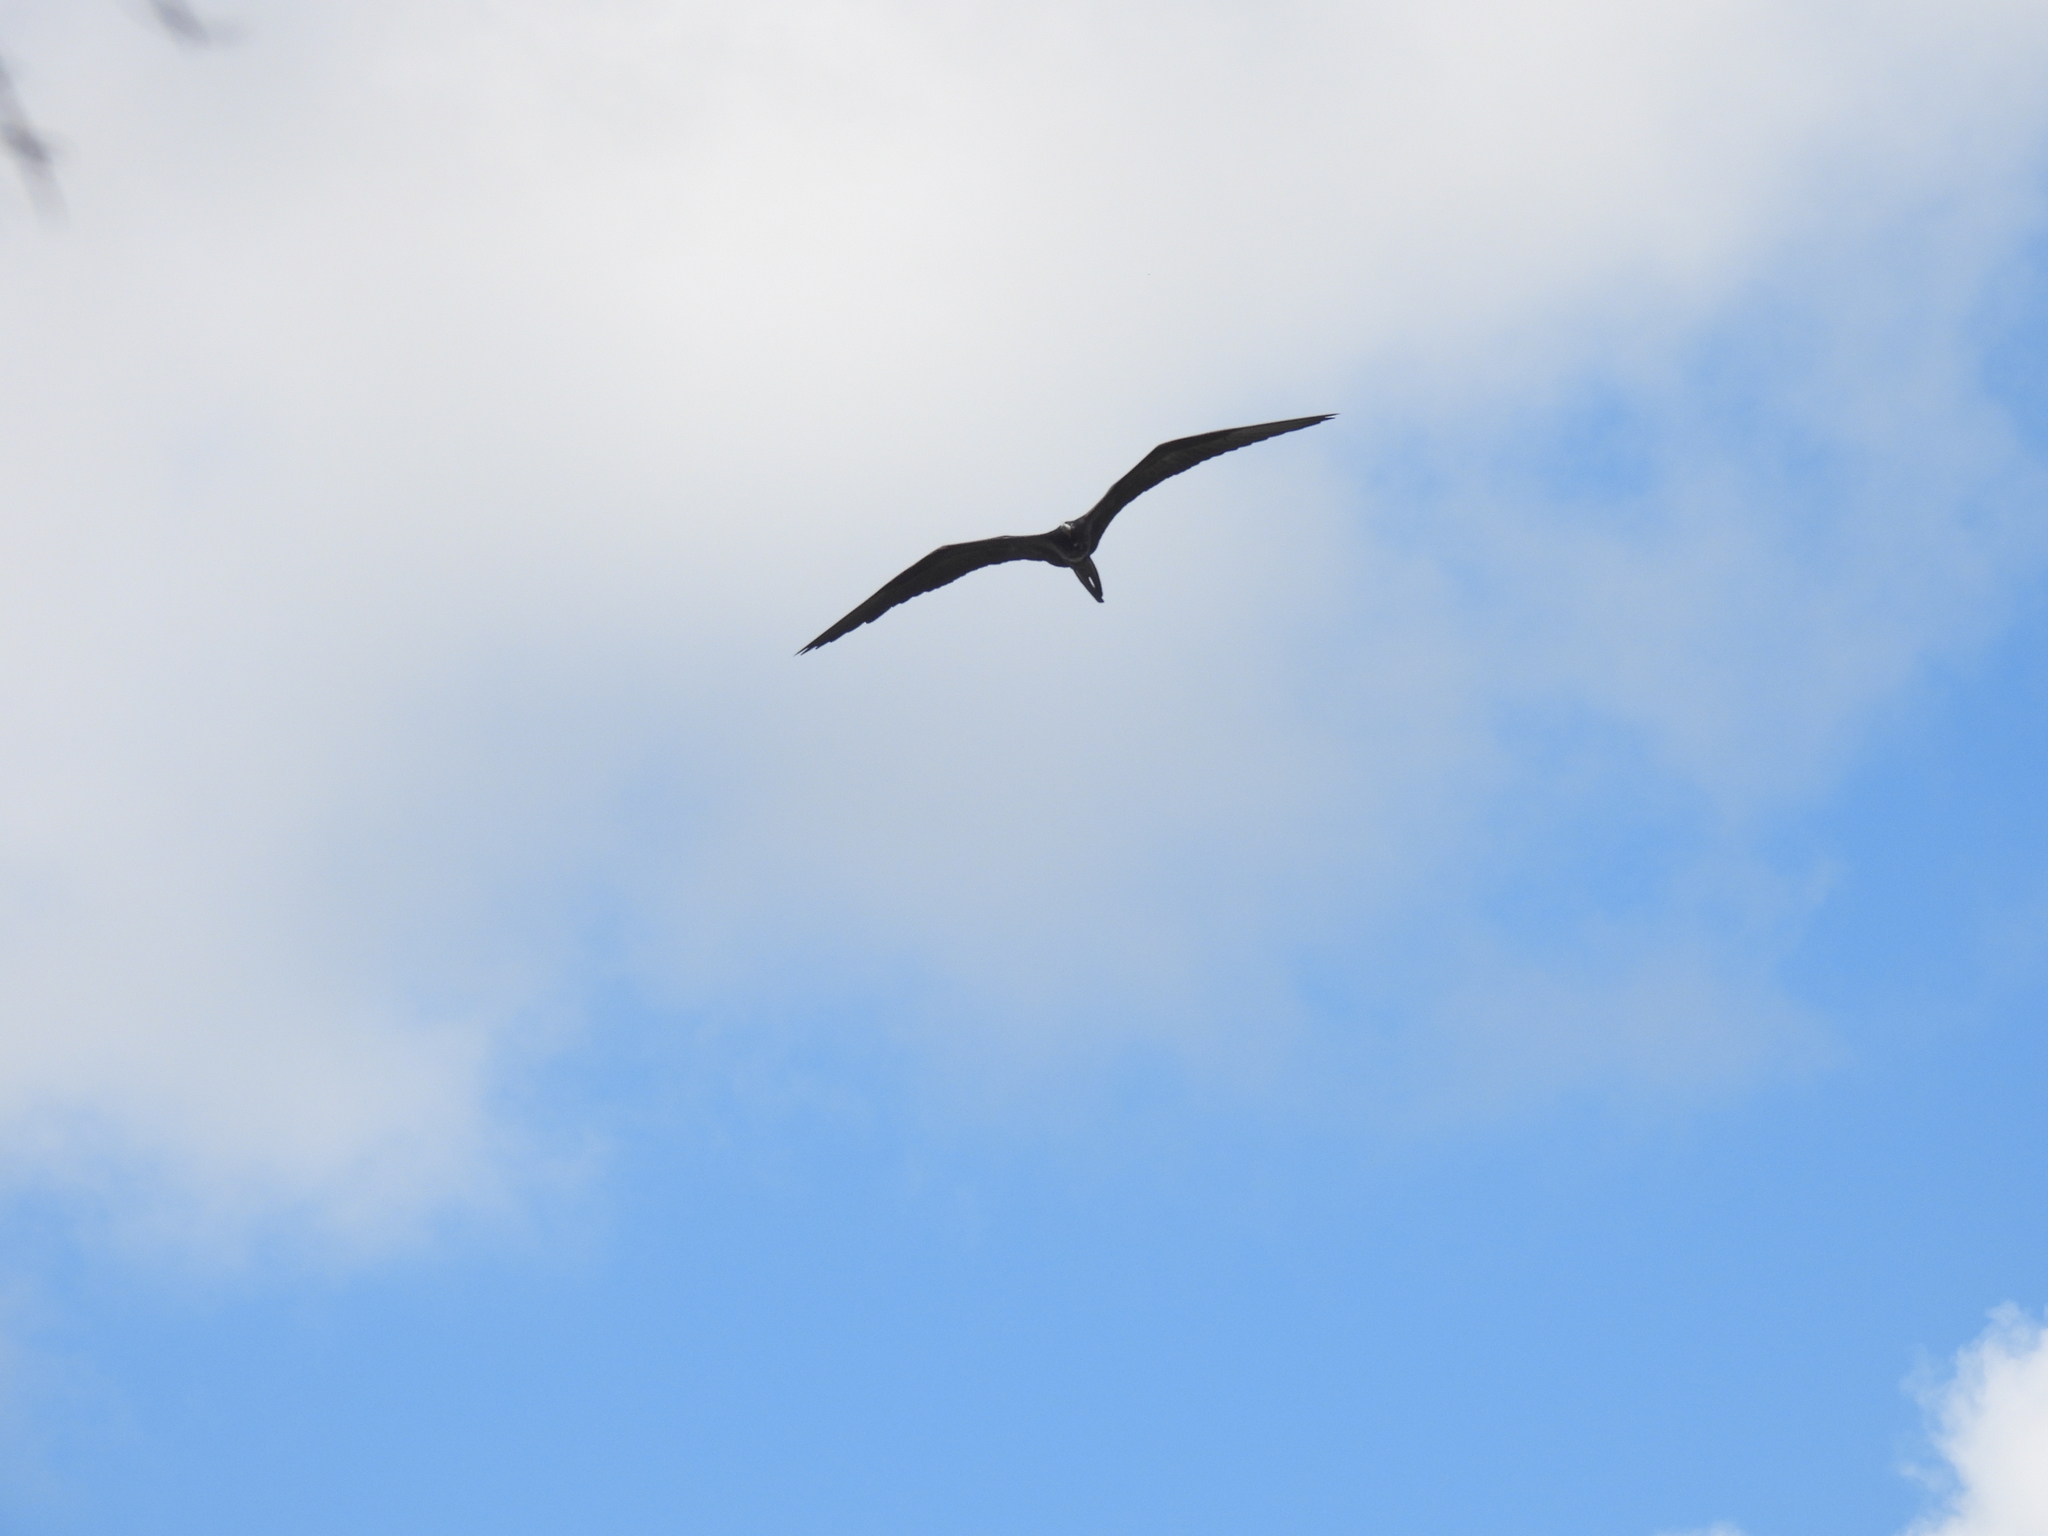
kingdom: Animalia
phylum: Chordata
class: Aves
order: Suliformes
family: Fregatidae
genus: Fregata
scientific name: Fregata magnificens
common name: Magnificent frigatebird
